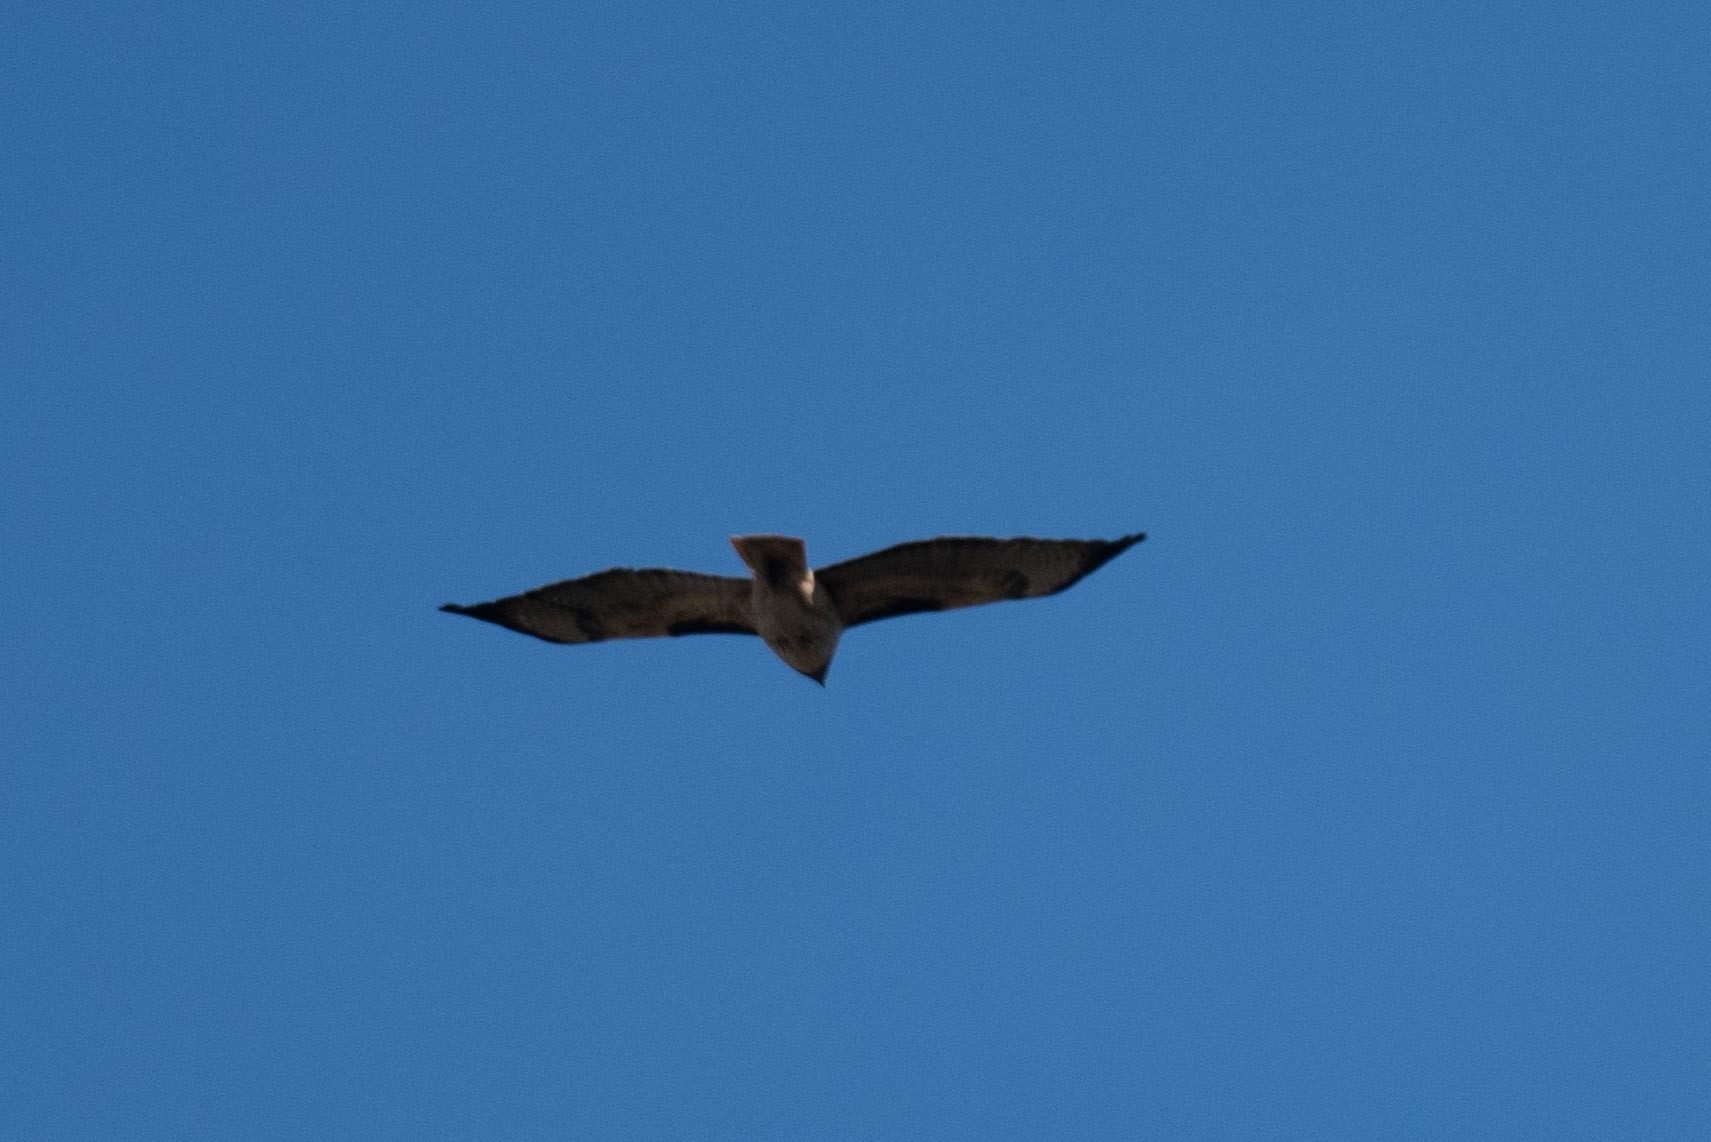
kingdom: Animalia
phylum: Chordata
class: Aves
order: Accipitriformes
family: Accipitridae
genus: Buteo
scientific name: Buteo jamaicensis
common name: Red-tailed hawk
